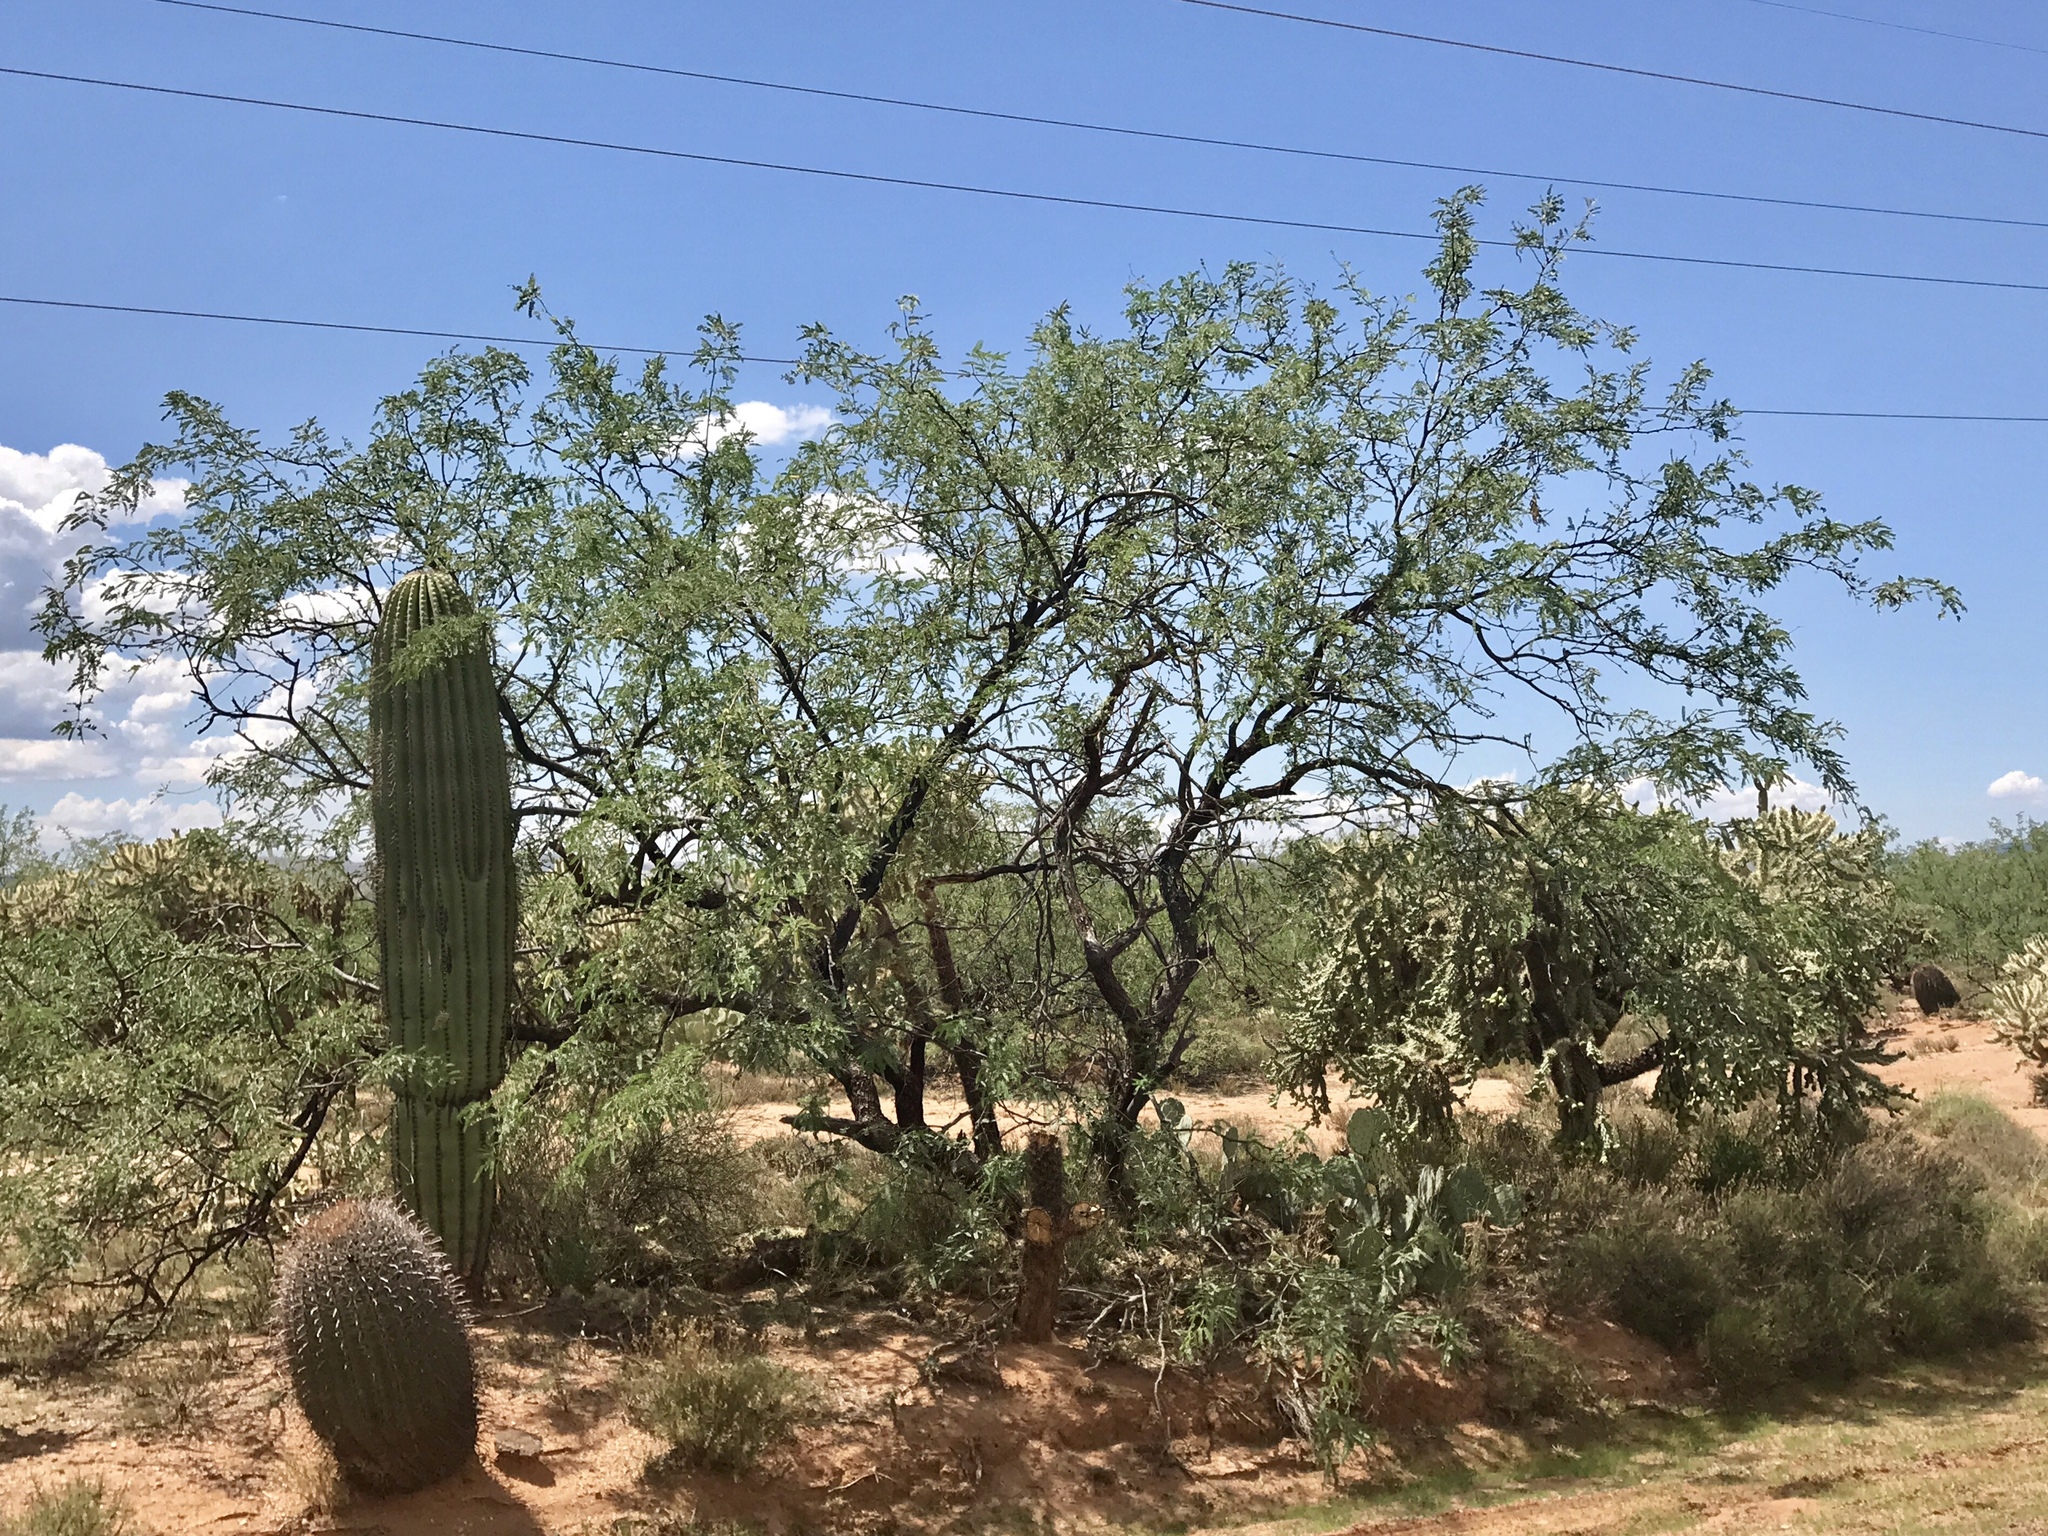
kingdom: Plantae
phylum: Tracheophyta
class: Magnoliopsida
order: Fabales
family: Fabaceae
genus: Prosopis
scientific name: Prosopis velutina
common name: Velvet mesquite
